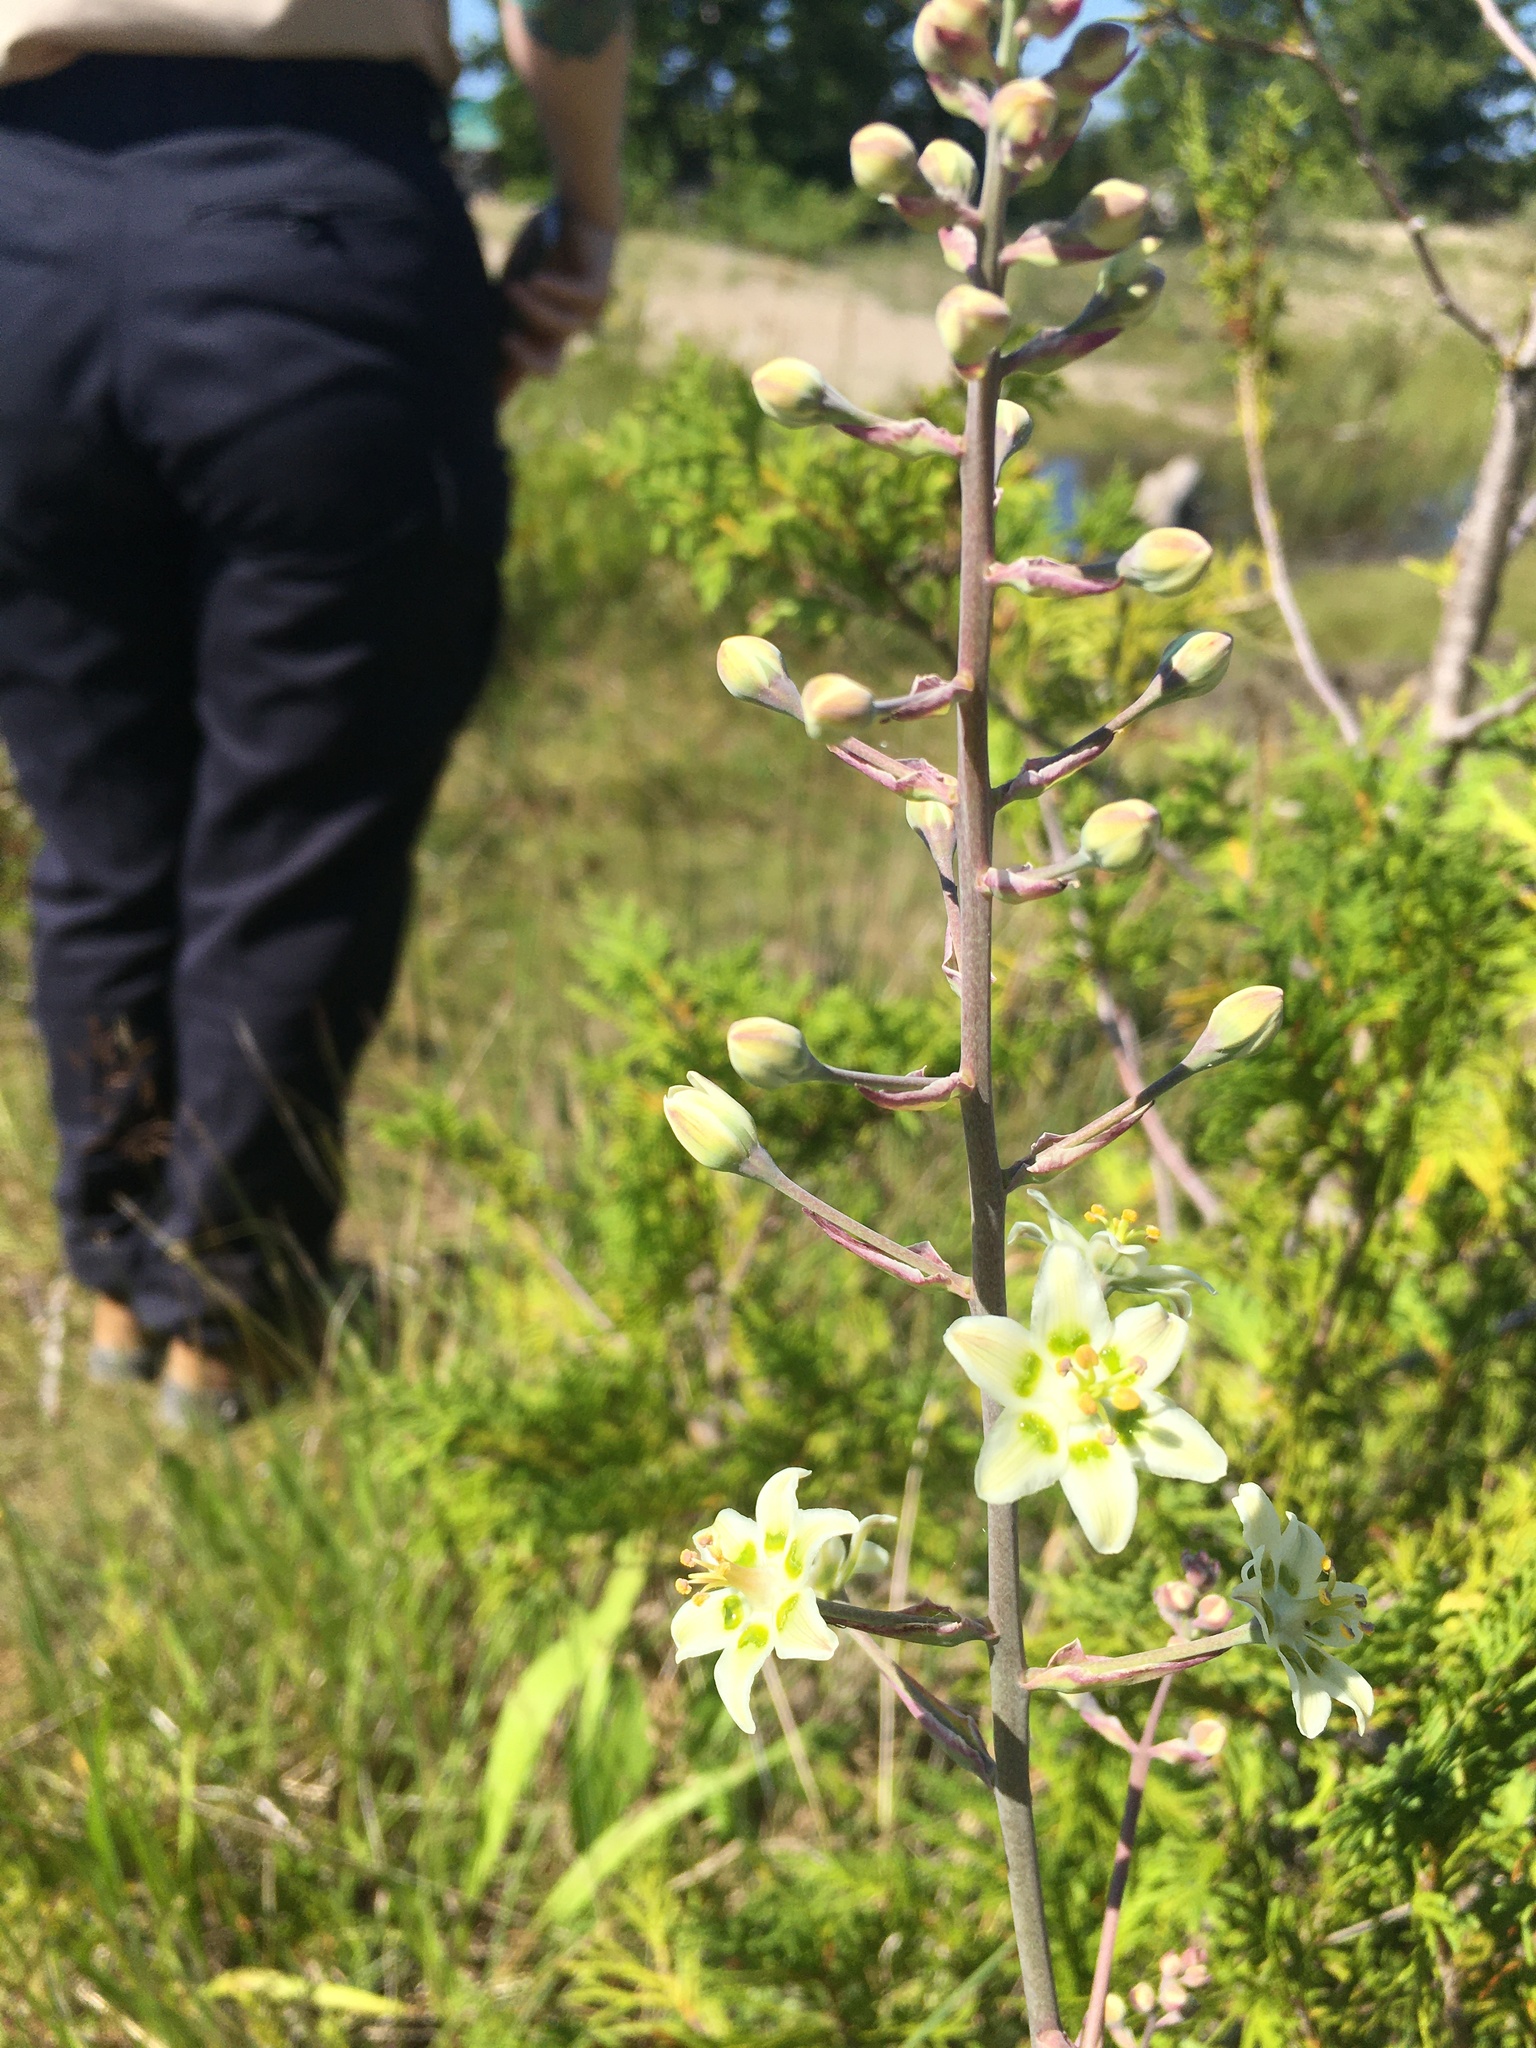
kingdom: Plantae
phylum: Tracheophyta
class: Liliopsida
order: Liliales
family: Melanthiaceae
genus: Anticlea
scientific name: Anticlea elegans
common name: Mountain death camas
